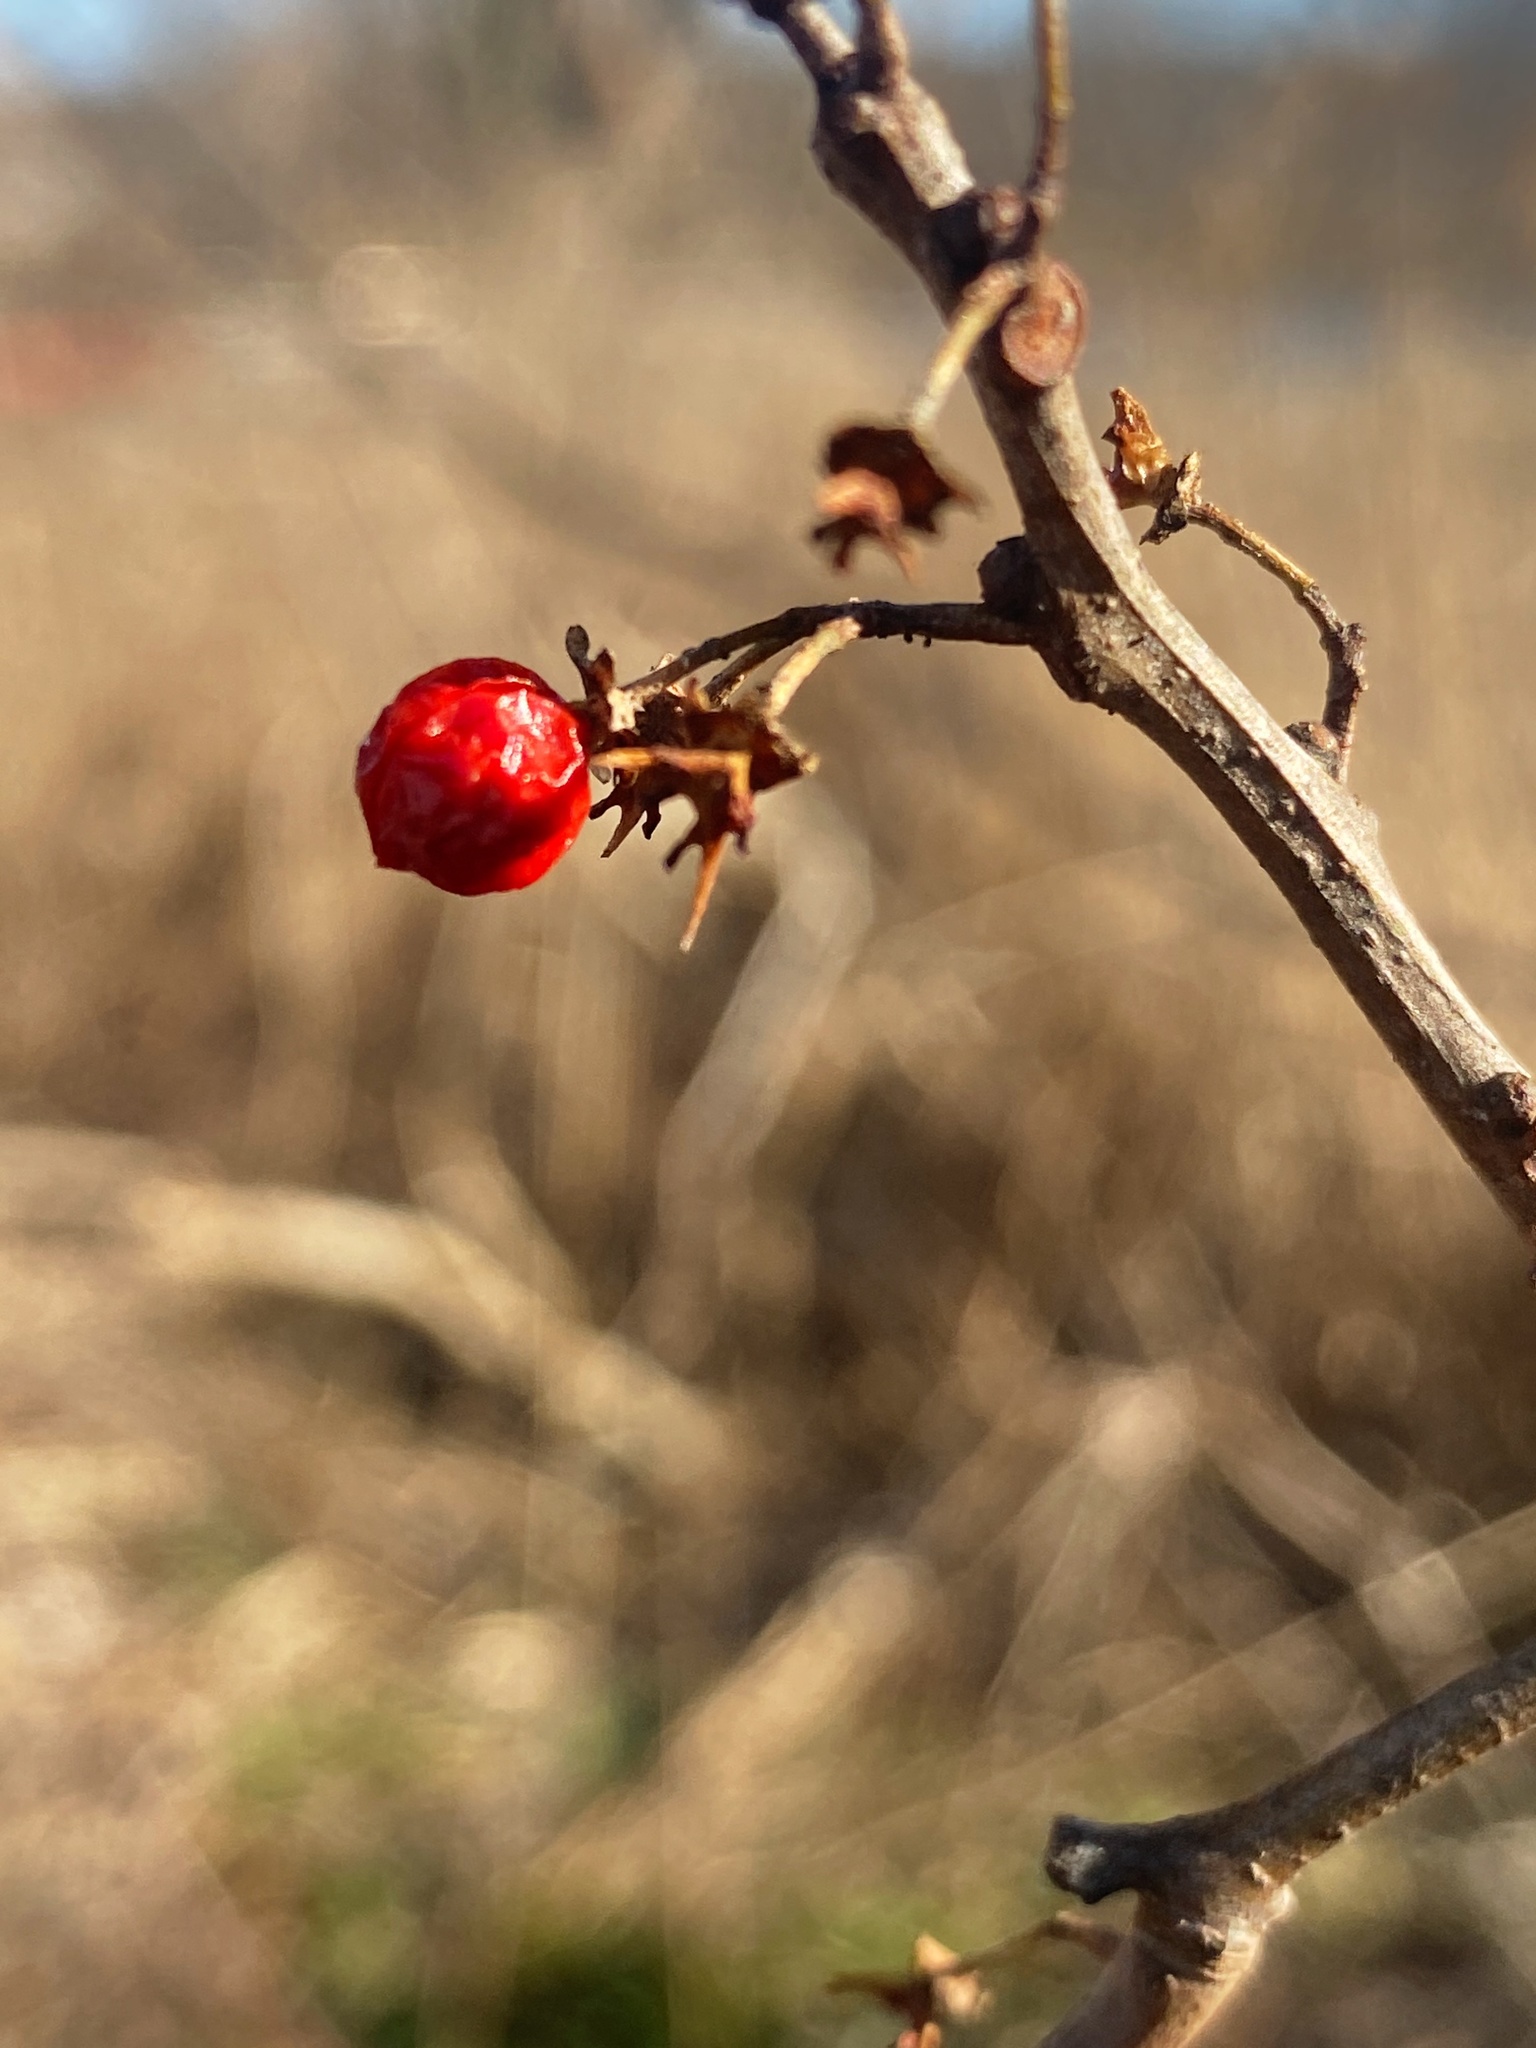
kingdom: Plantae
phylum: Tracheophyta
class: Magnoliopsida
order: Celastrales
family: Celastraceae
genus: Celastrus
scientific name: Celastrus orbiculatus
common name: Oriental bittersweet
